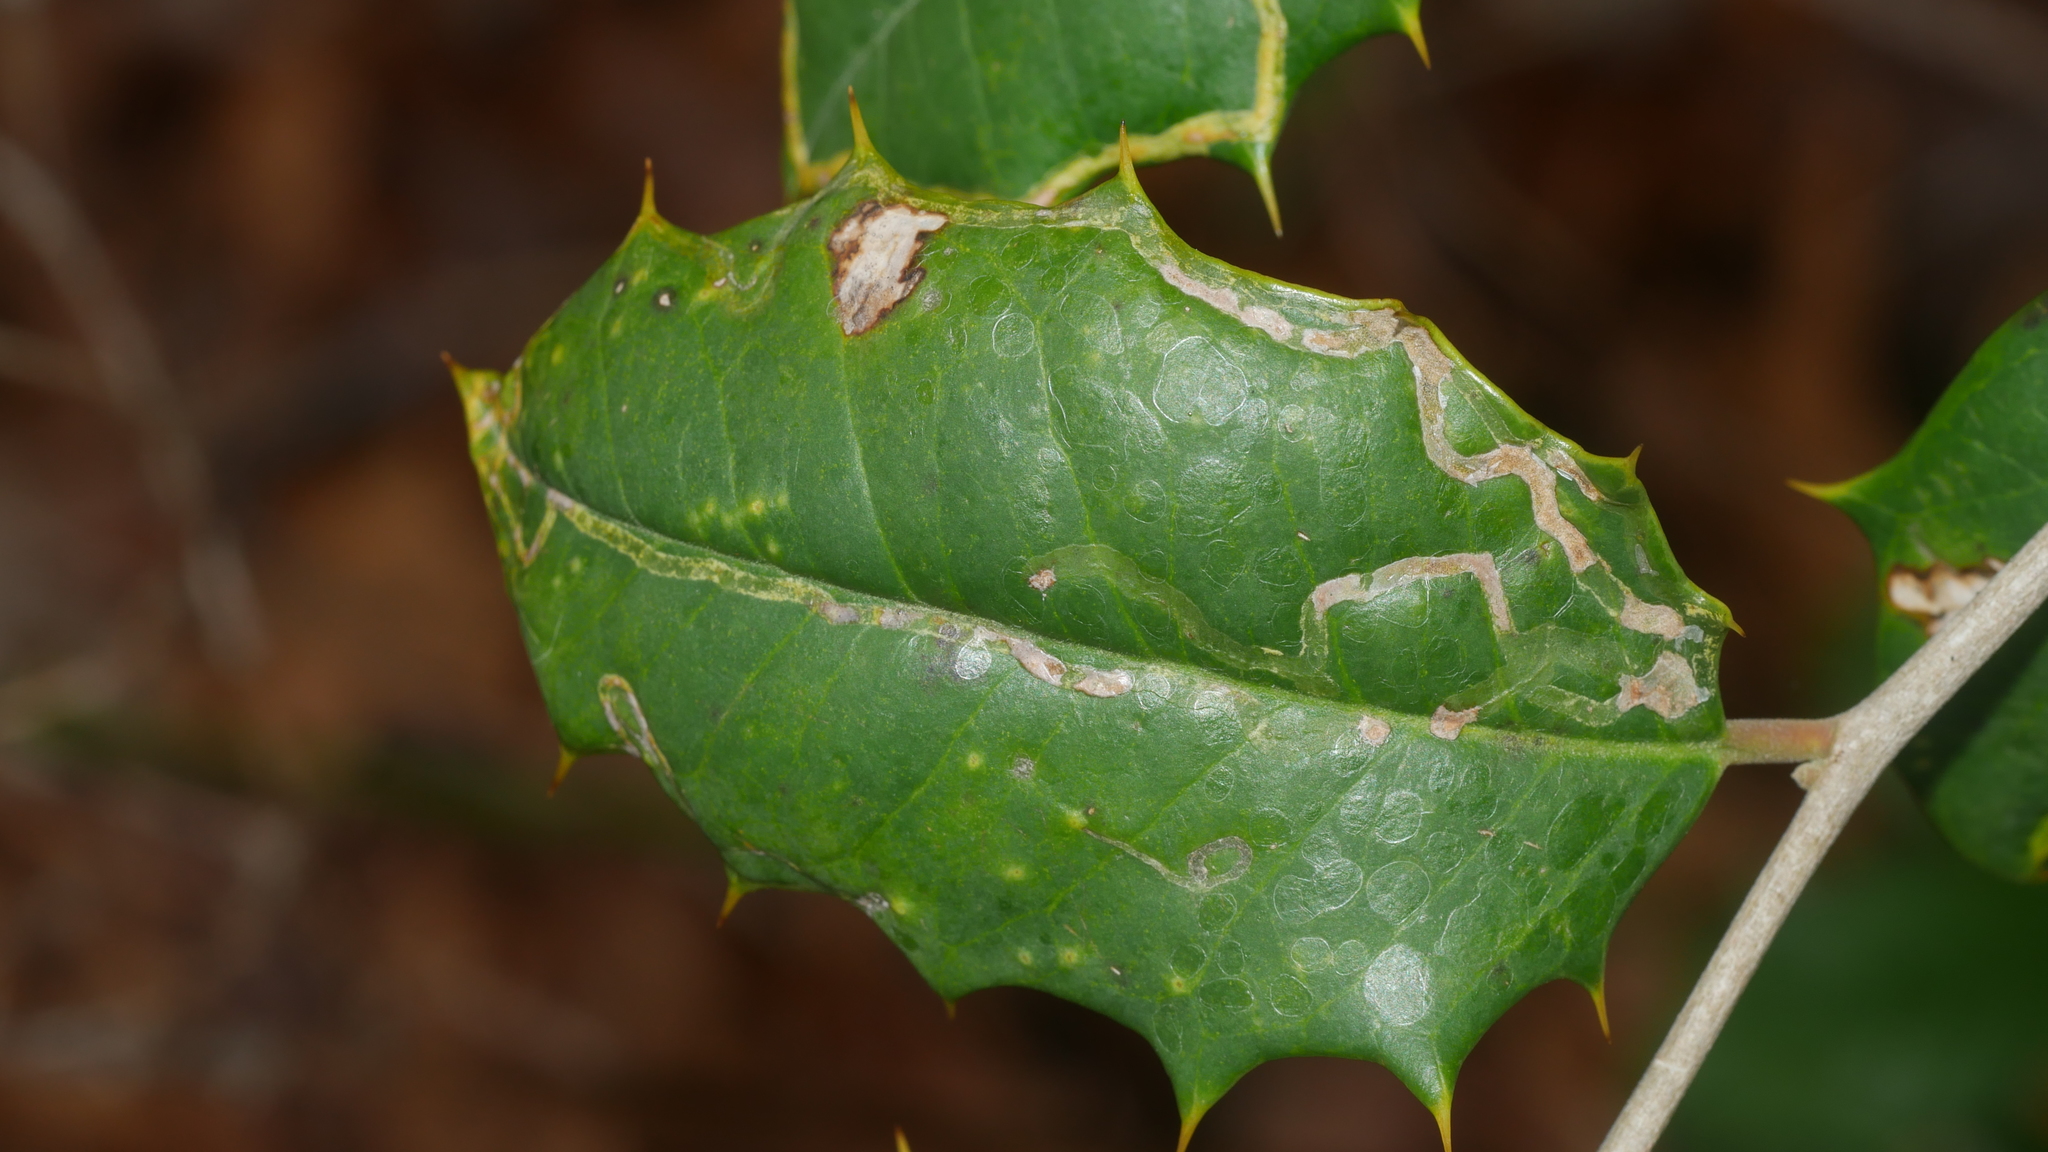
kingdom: Animalia
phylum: Arthropoda
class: Insecta
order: Diptera
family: Agromyzidae
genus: Phytomyza
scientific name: Phytomyza opacae
